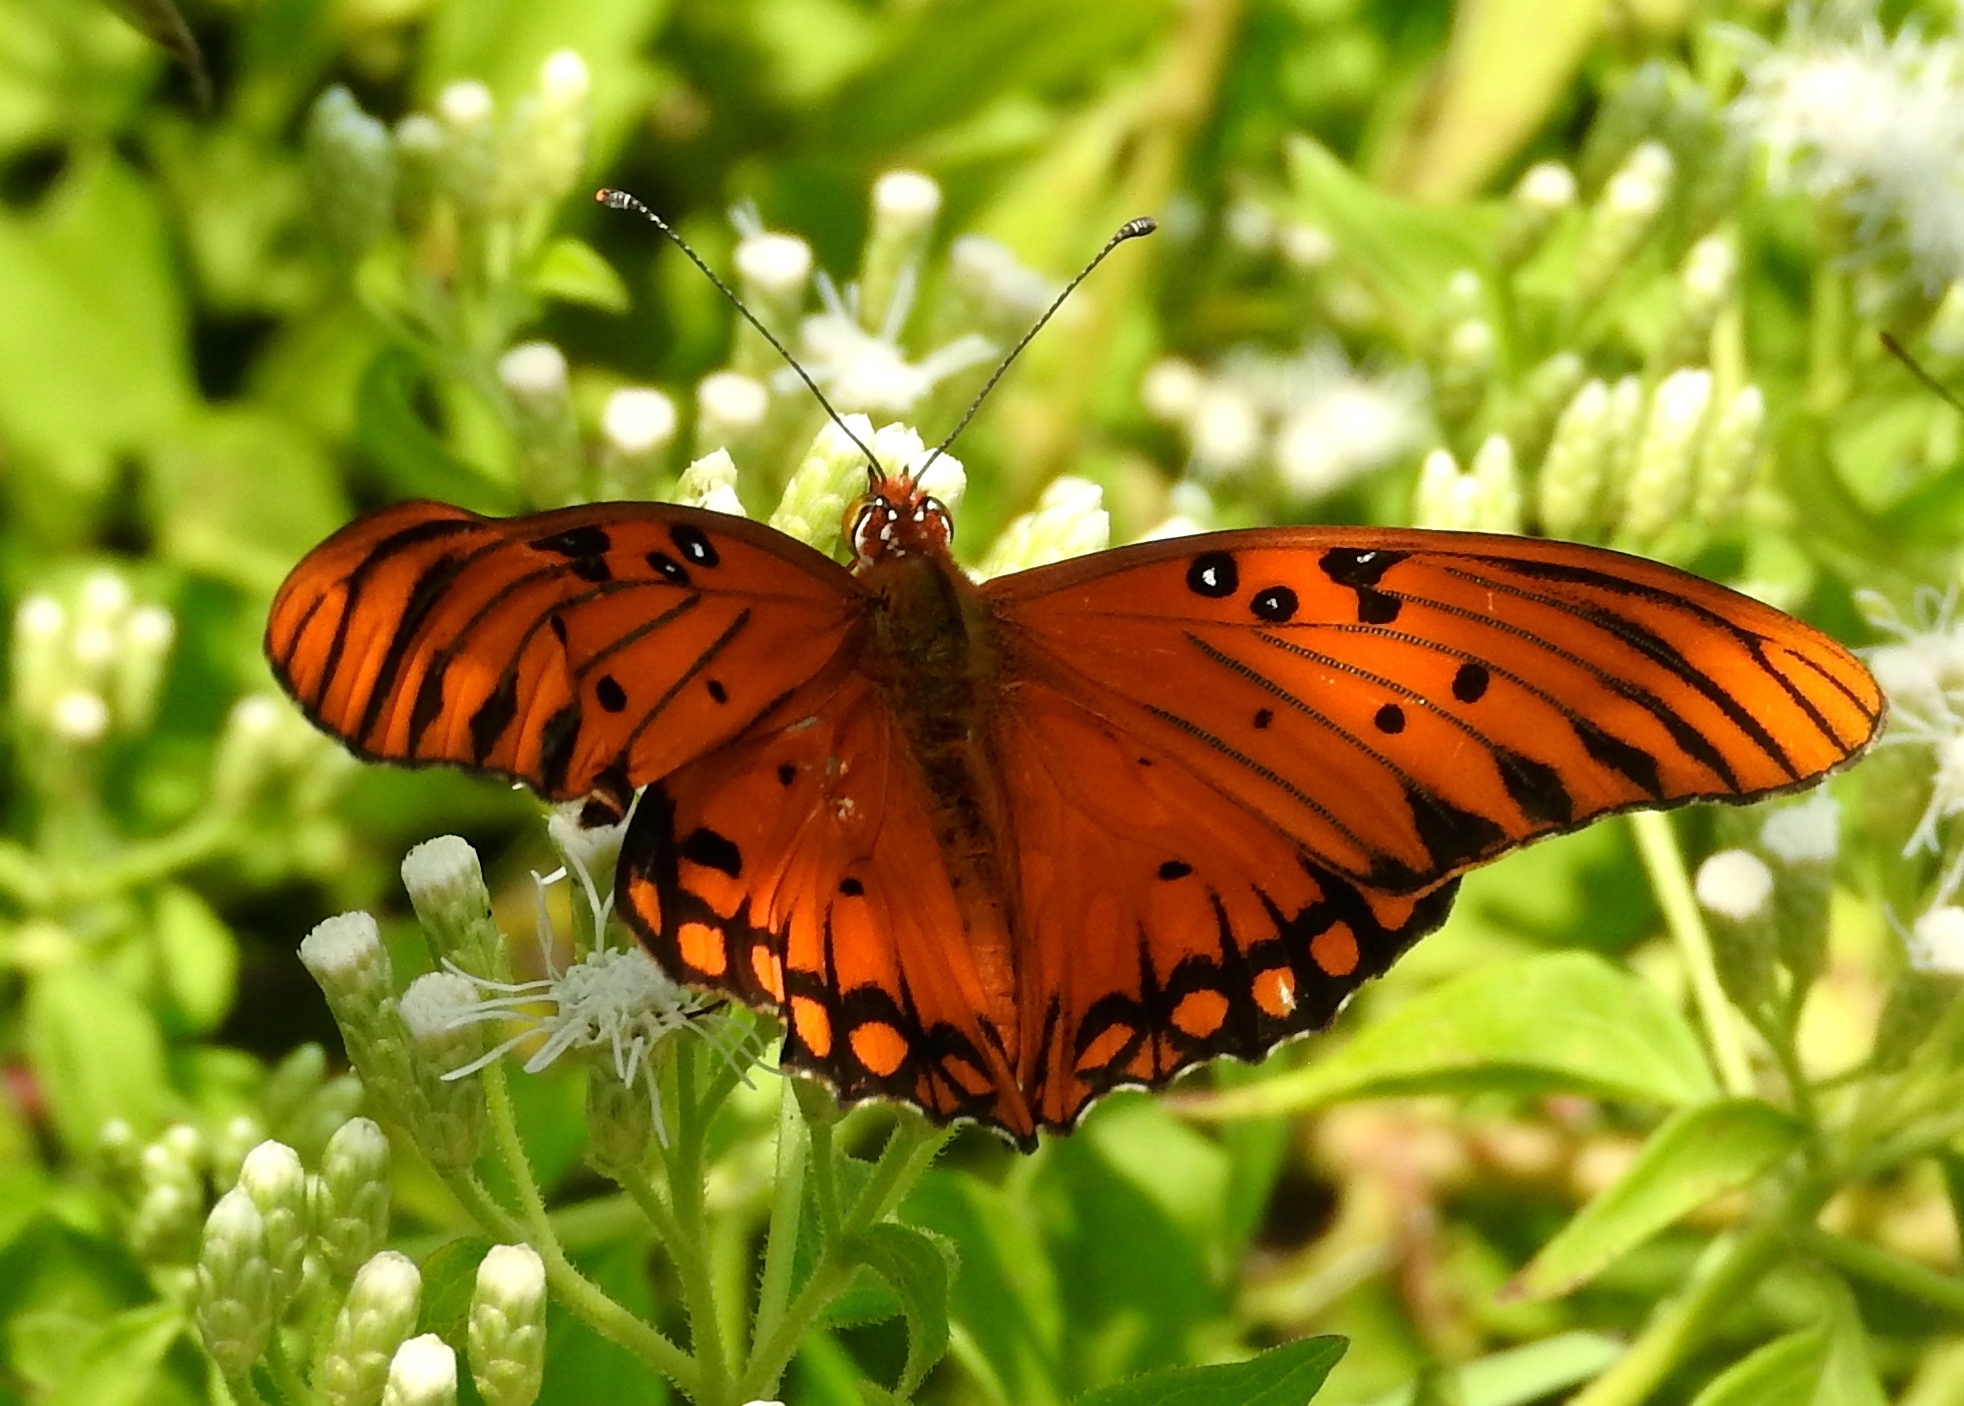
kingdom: Animalia
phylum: Arthropoda
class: Insecta
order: Lepidoptera
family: Nymphalidae
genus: Dione
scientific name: Dione vanillae
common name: Gulf fritillary
